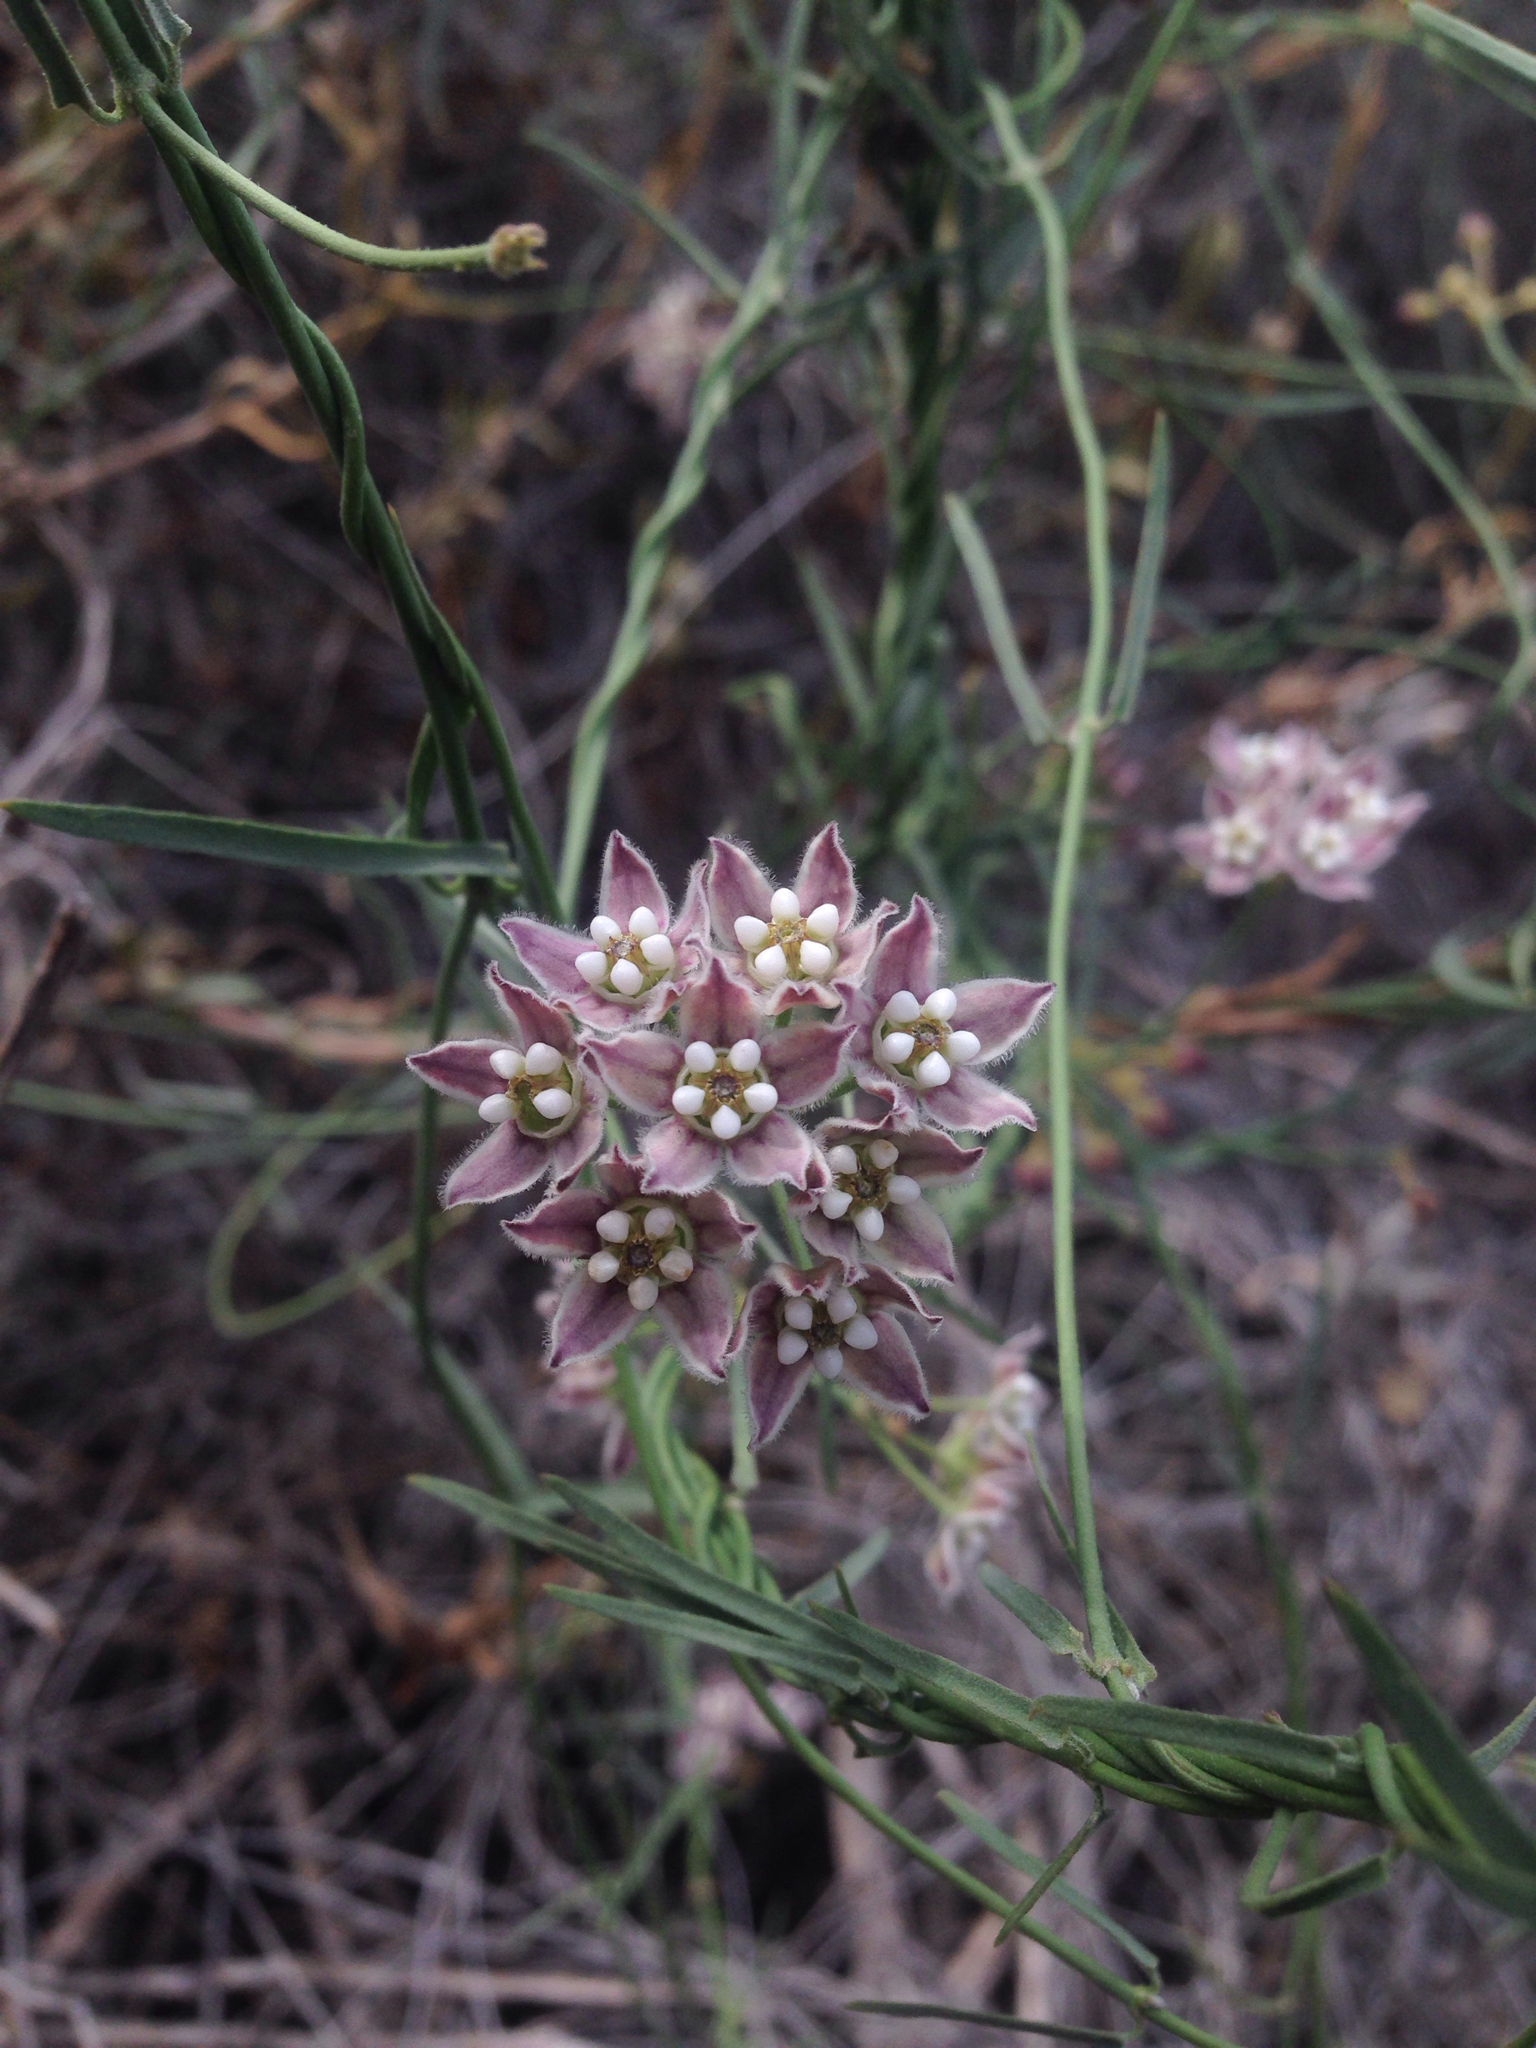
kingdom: Plantae
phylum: Tracheophyta
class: Magnoliopsida
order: Gentianales
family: Apocynaceae
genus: Funastrum
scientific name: Funastrum heterophyllum
